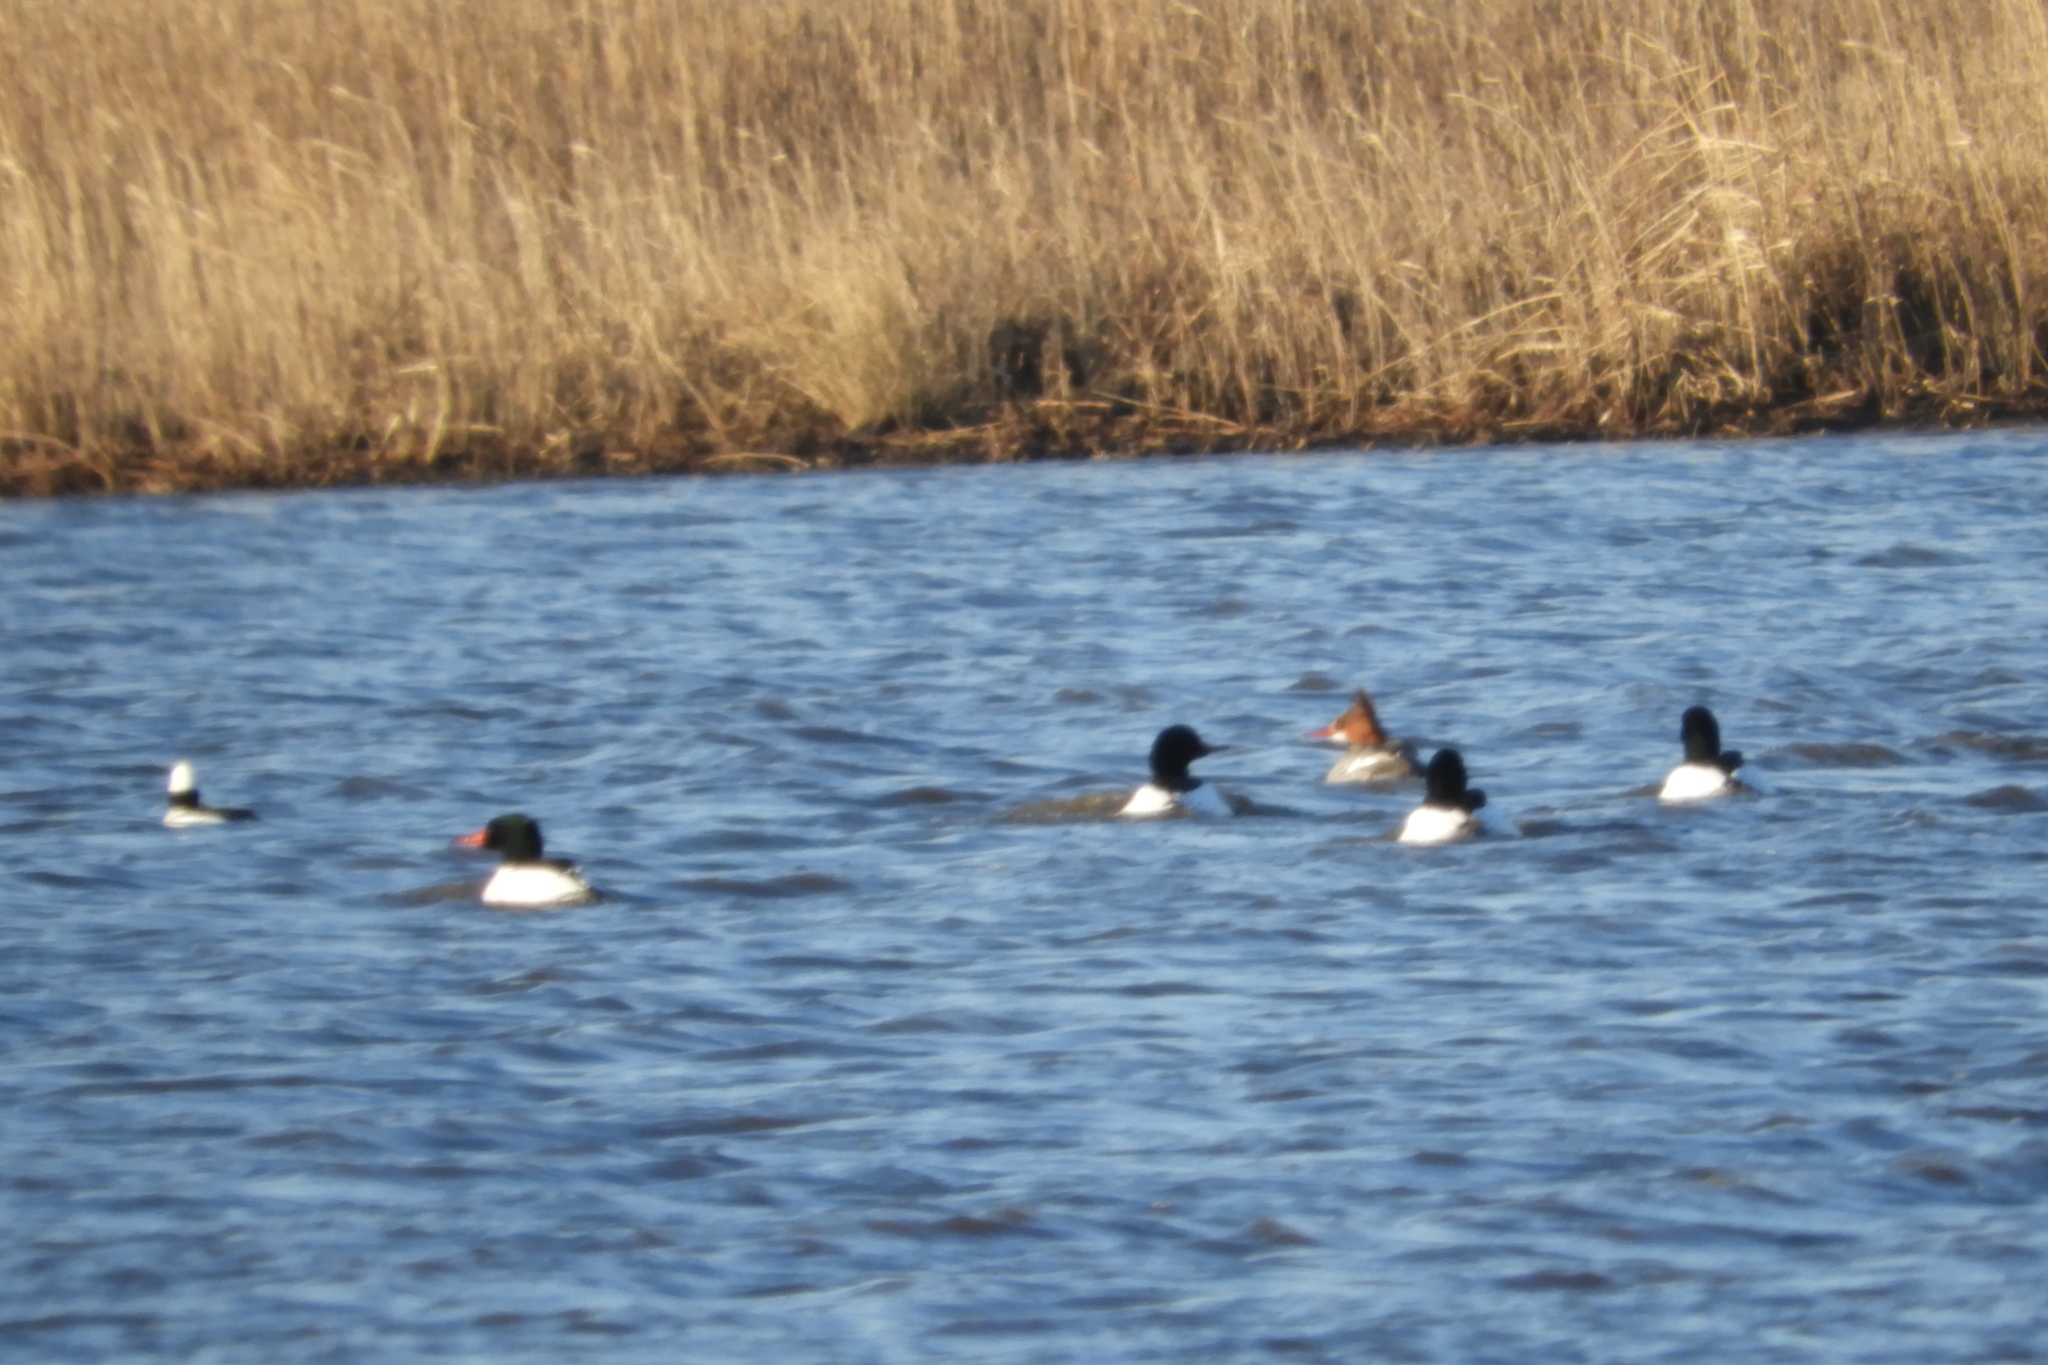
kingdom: Animalia
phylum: Chordata
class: Aves
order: Anseriformes
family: Anatidae
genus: Mergus
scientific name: Mergus merganser
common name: Common merganser
